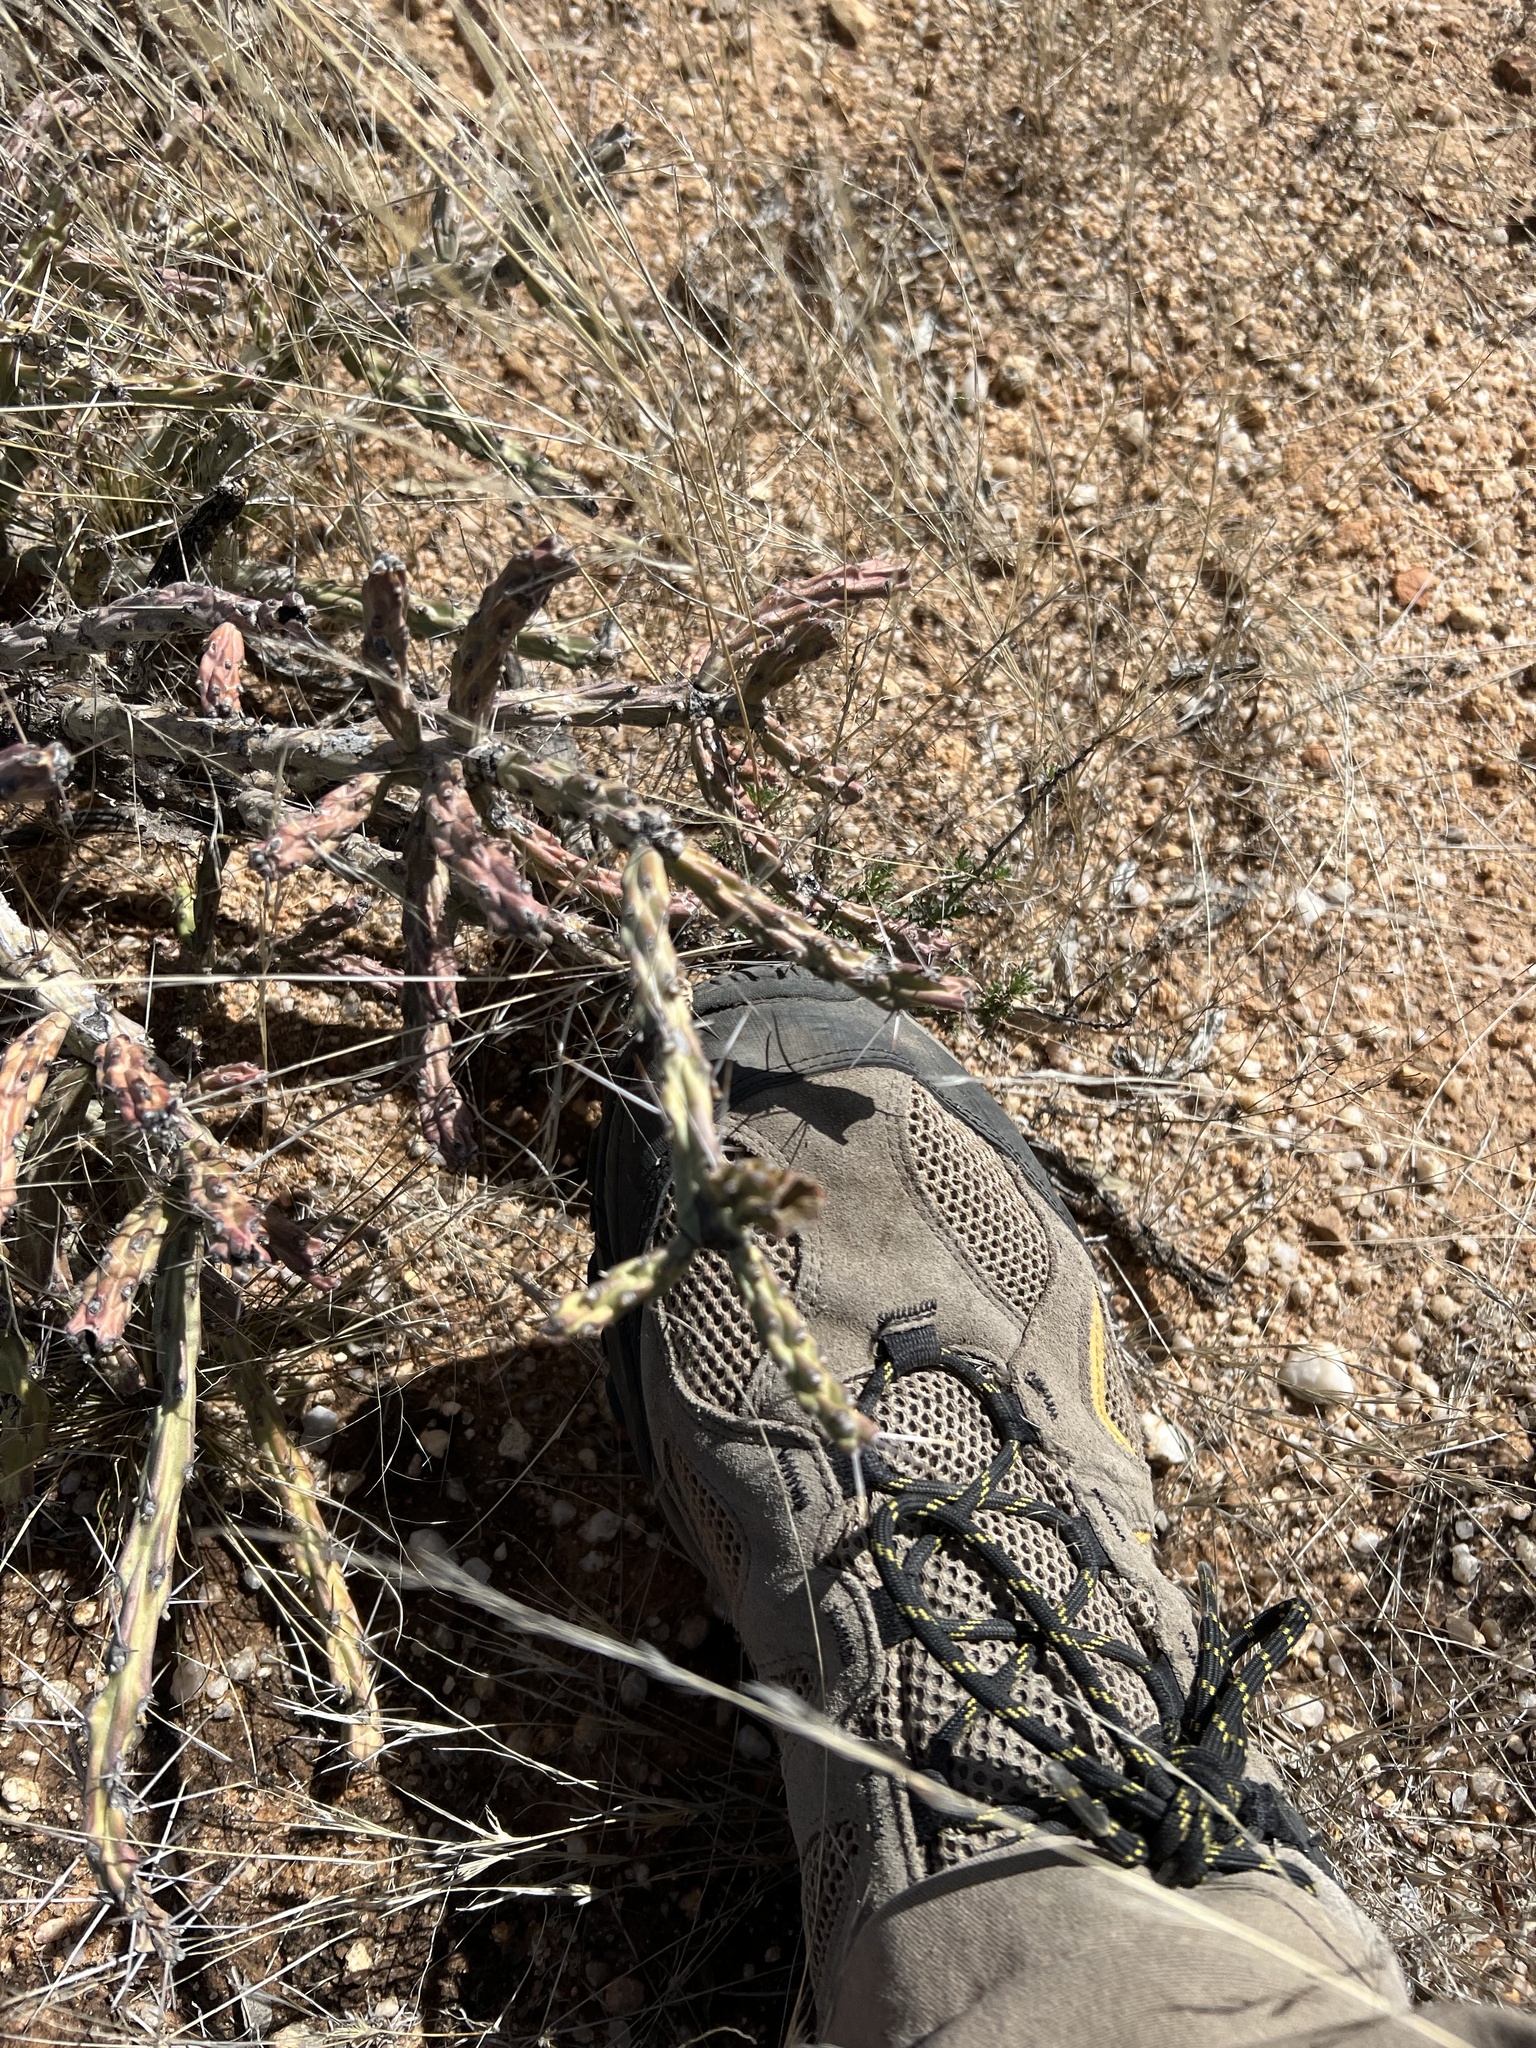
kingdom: Plantae
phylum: Tracheophyta
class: Magnoliopsida
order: Caryophyllales
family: Cactaceae
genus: Cylindropuntia
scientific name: Cylindropuntia arbuscula
